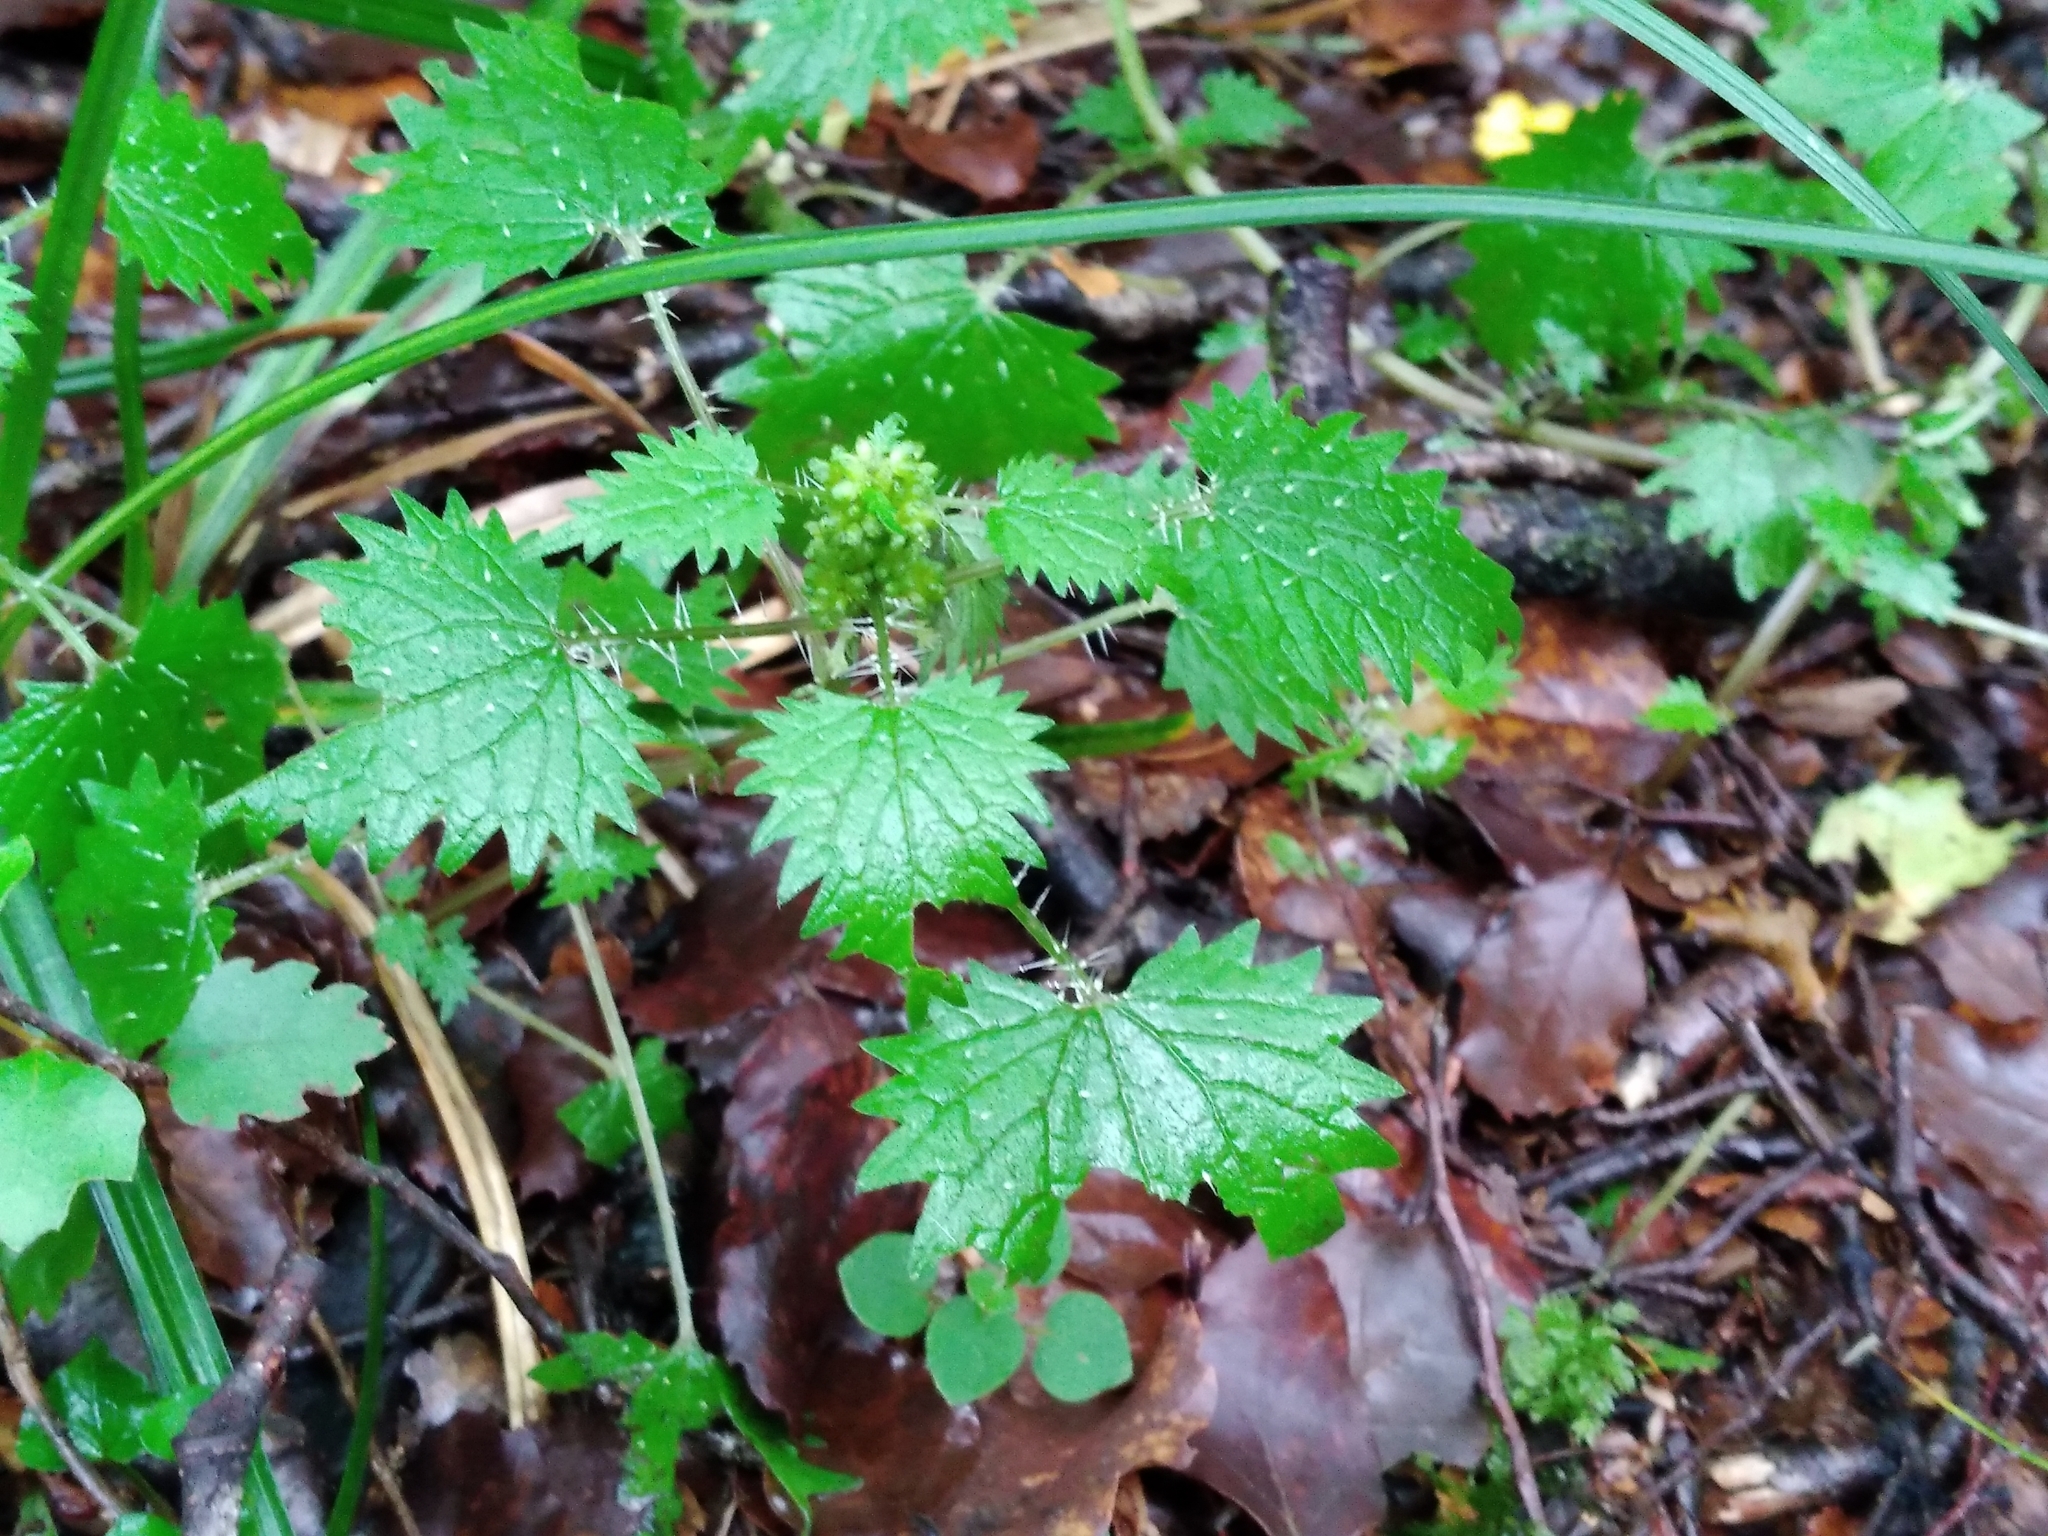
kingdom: Plantae
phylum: Tracheophyta
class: Magnoliopsida
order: Rosales
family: Urticaceae
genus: Urtica
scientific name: Urtica sykesii
